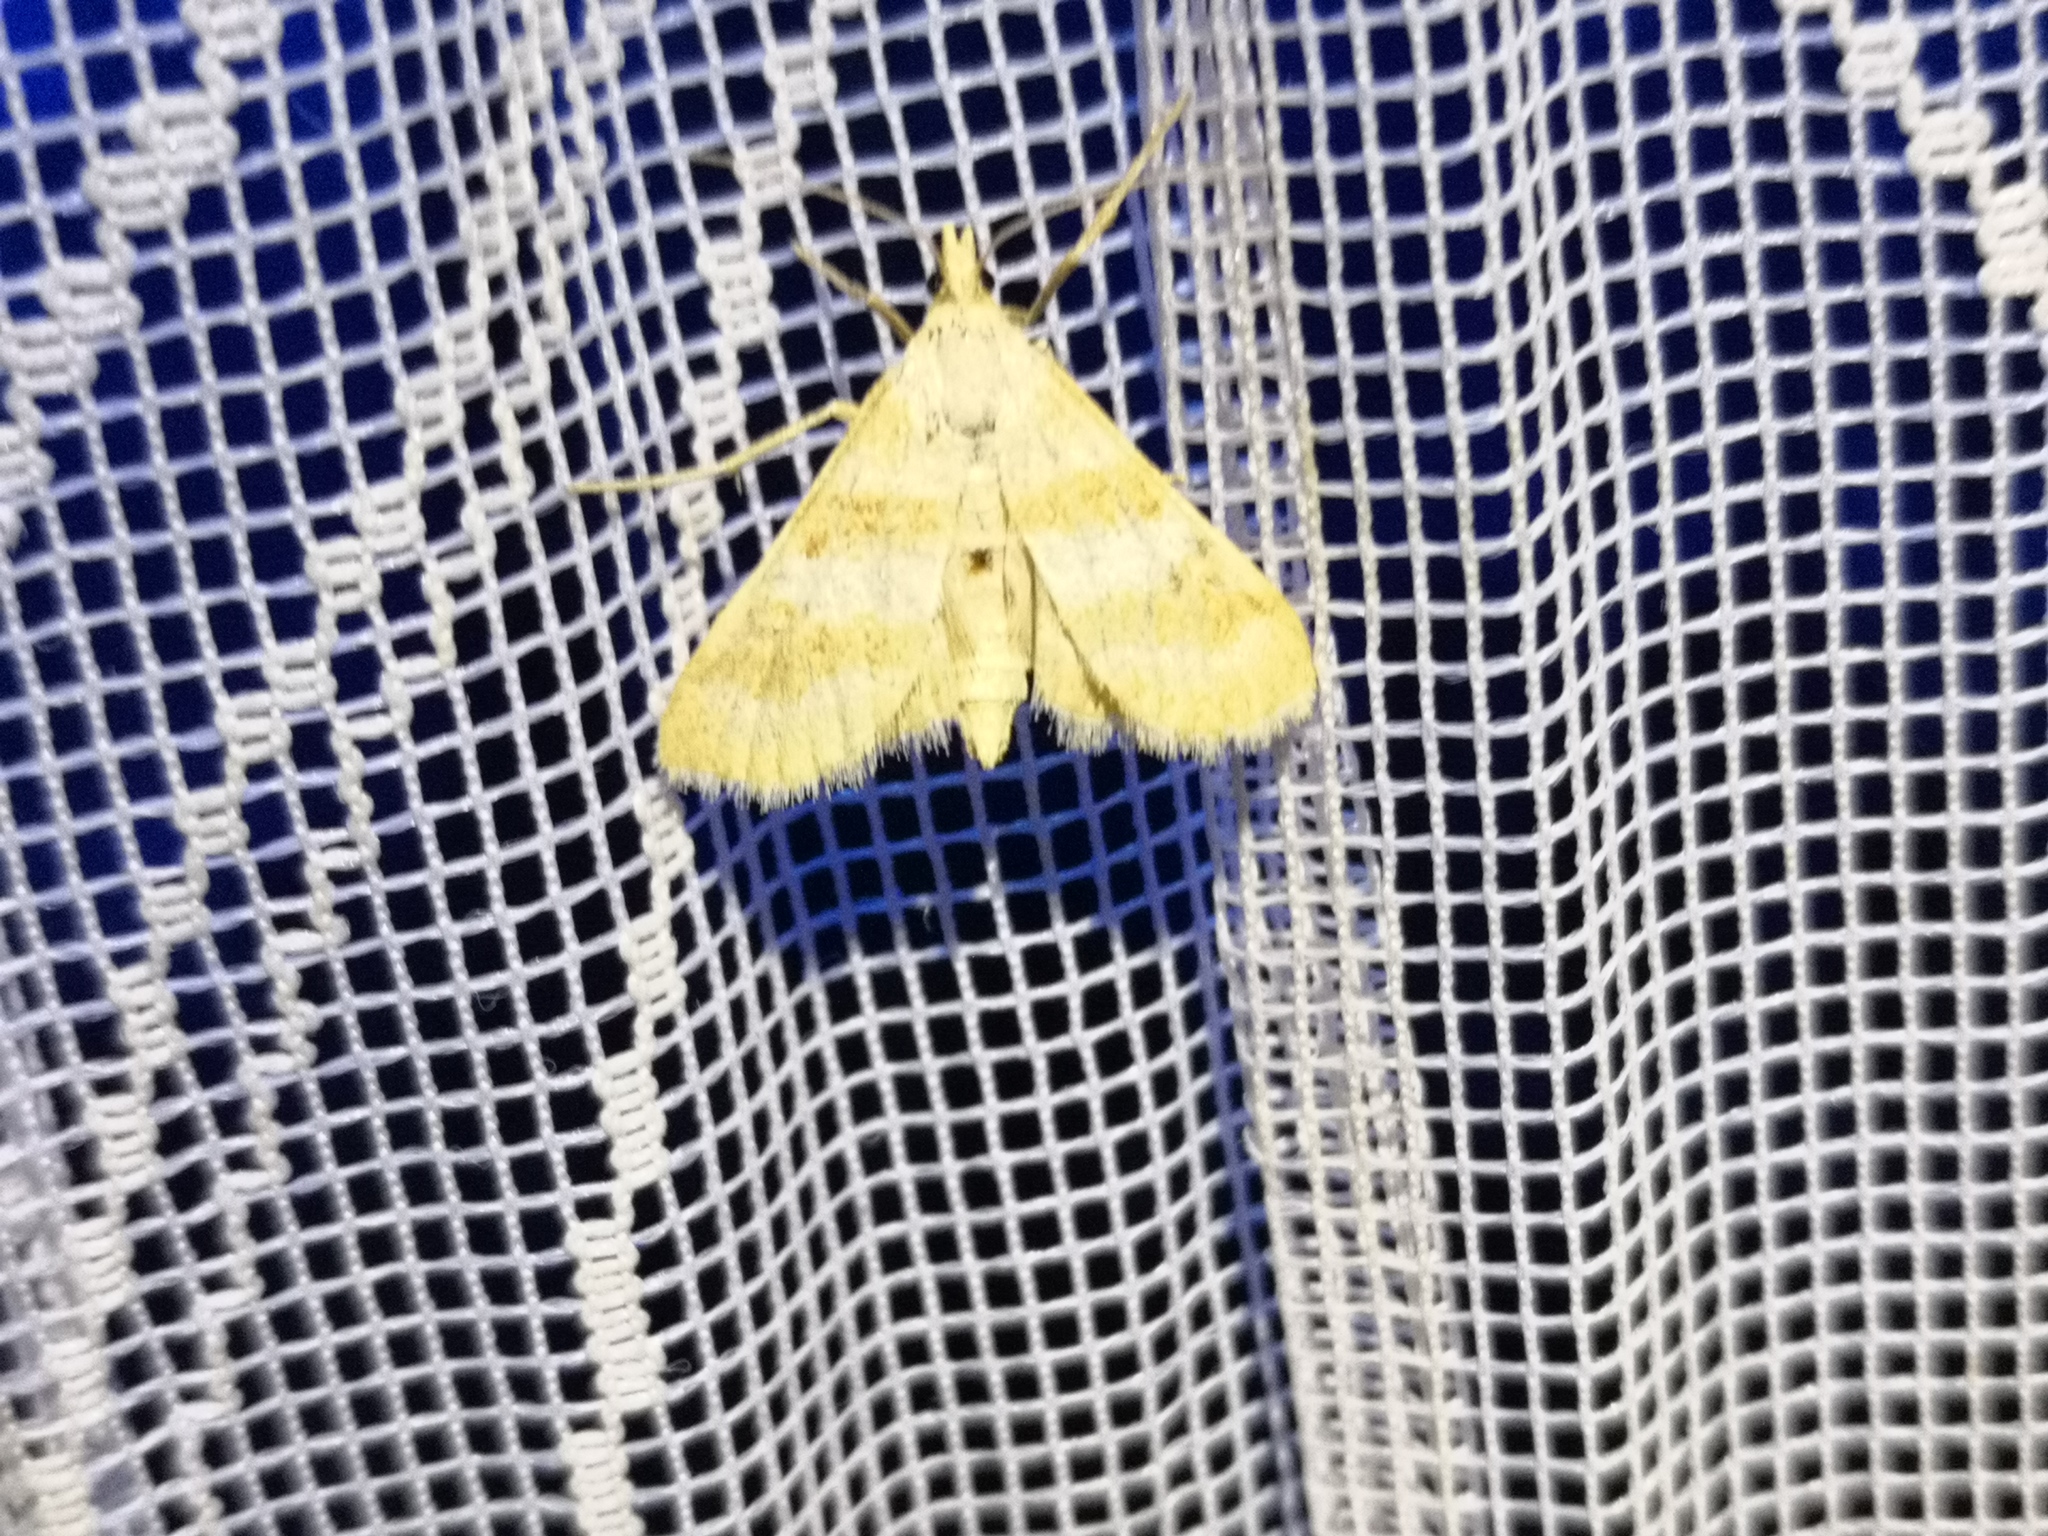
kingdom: Animalia
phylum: Arthropoda
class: Insecta
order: Lepidoptera
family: Crambidae
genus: Metasia
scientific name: Metasia suppandalis
